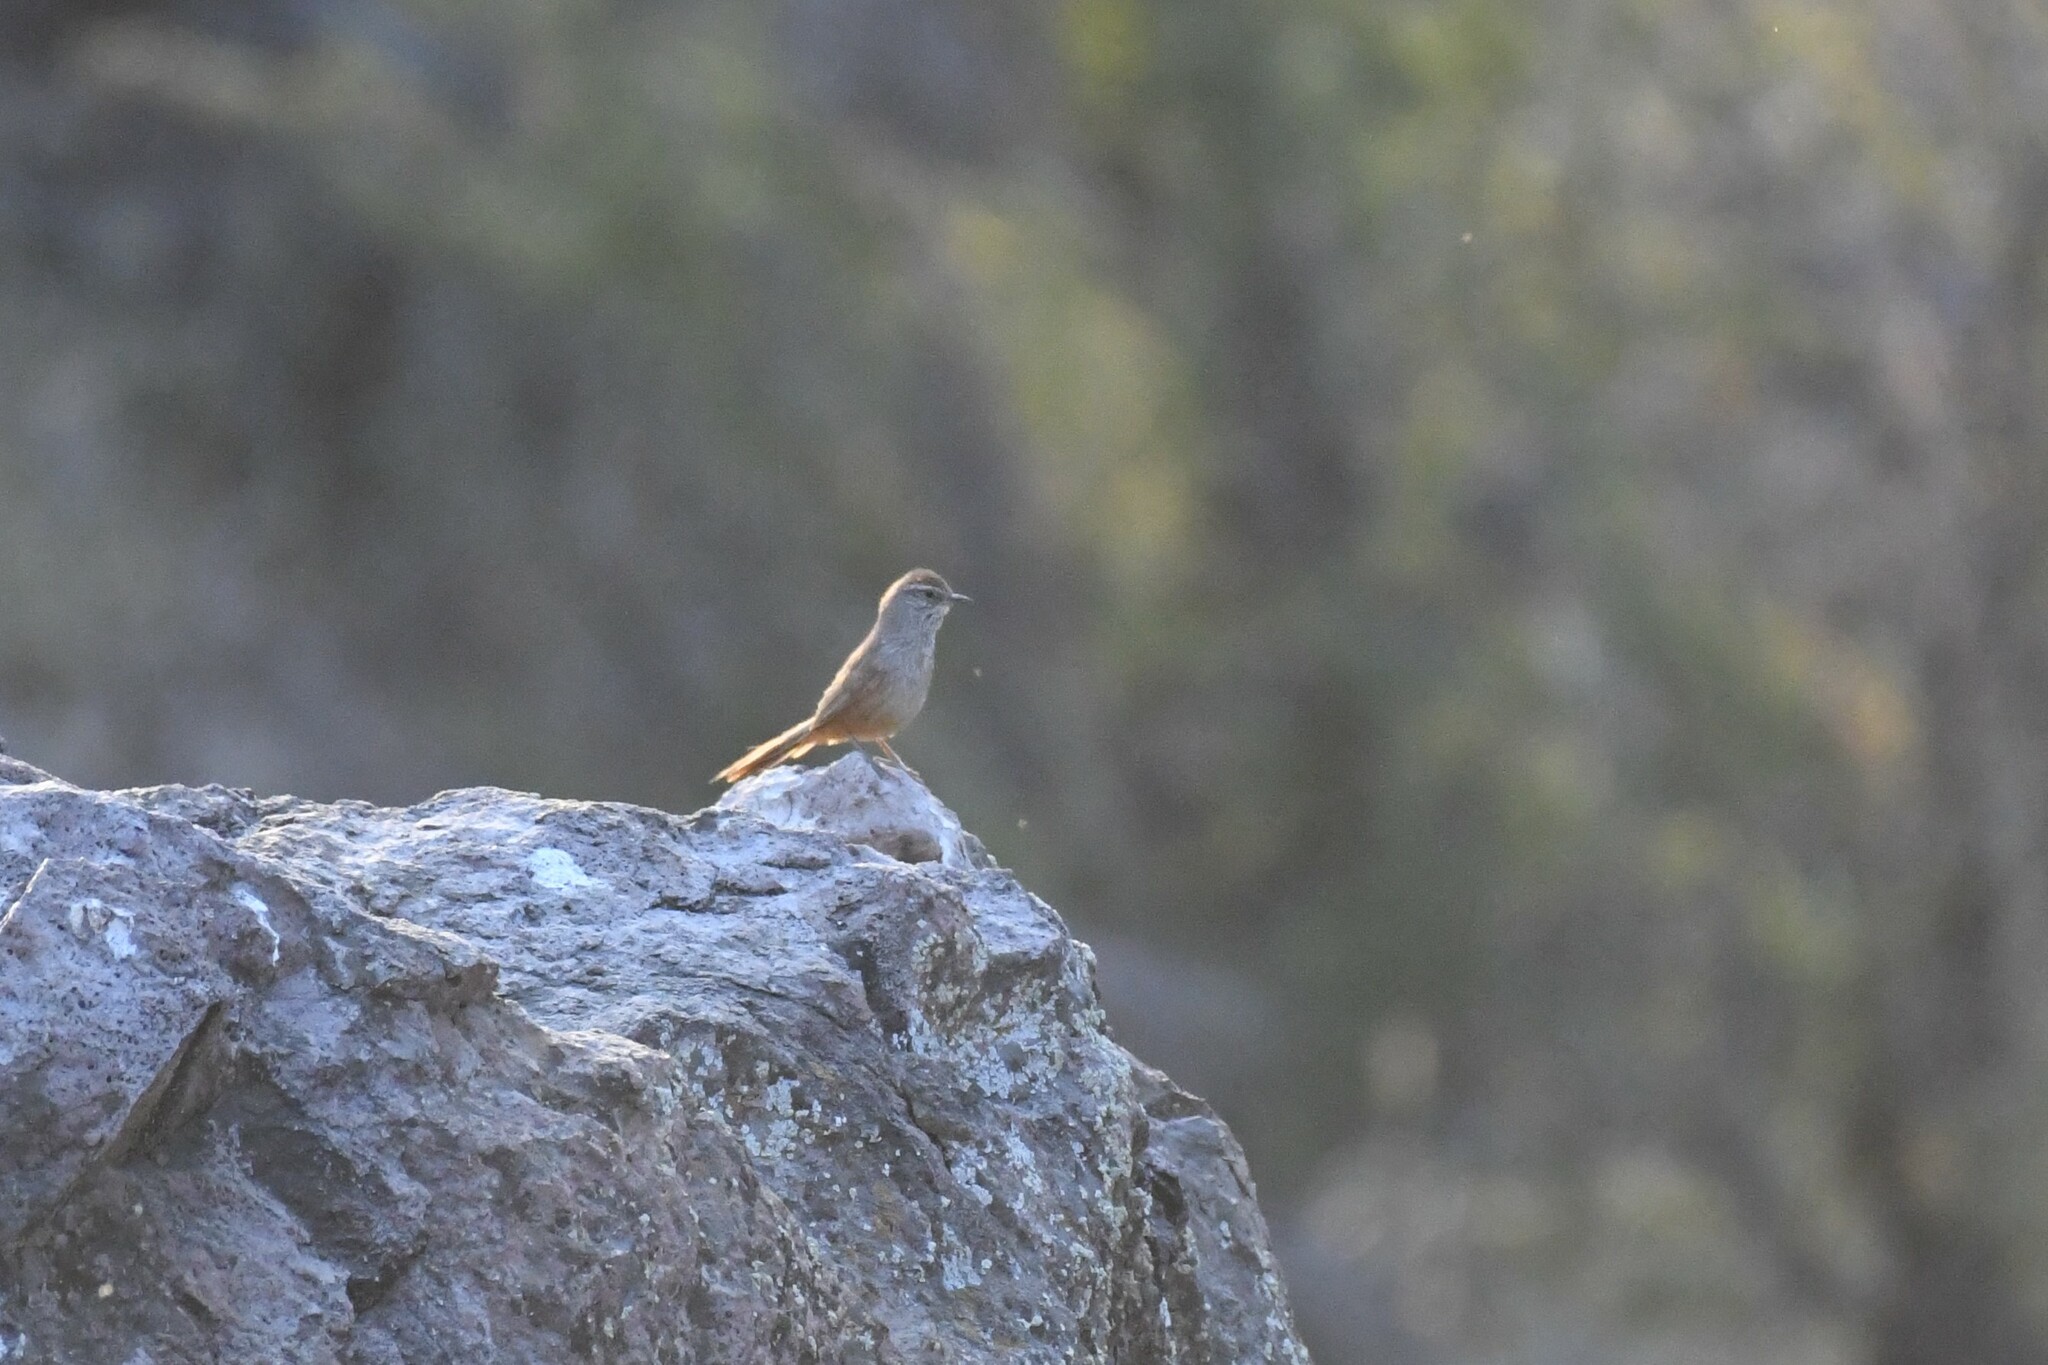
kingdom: Animalia
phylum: Chordata
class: Aves
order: Passeriformes
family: Furnariidae
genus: Asthenes
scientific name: Asthenes humicola
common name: Dusky-tailed canastero
